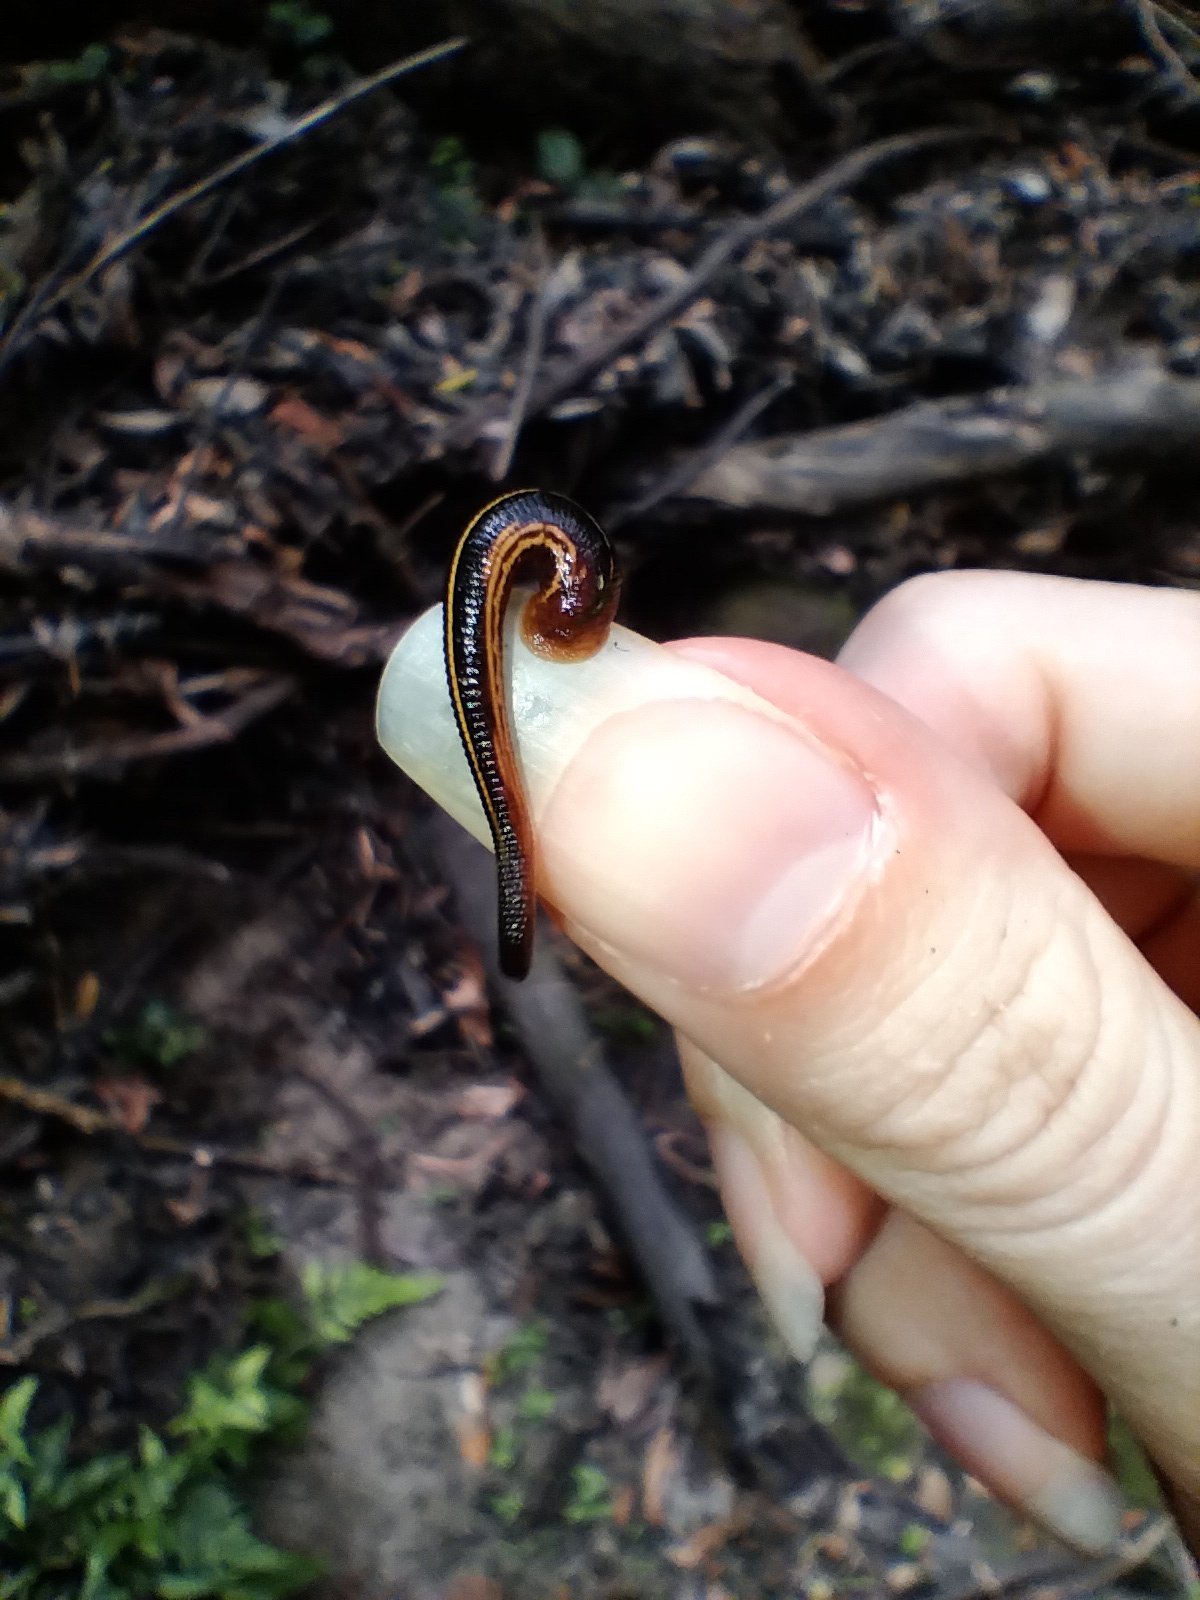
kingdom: Animalia
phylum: Annelida
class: Clitellata
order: Arhynchobdellida
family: Haemadipsidae
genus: Chtonobdella
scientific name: Chtonobdella limbata
